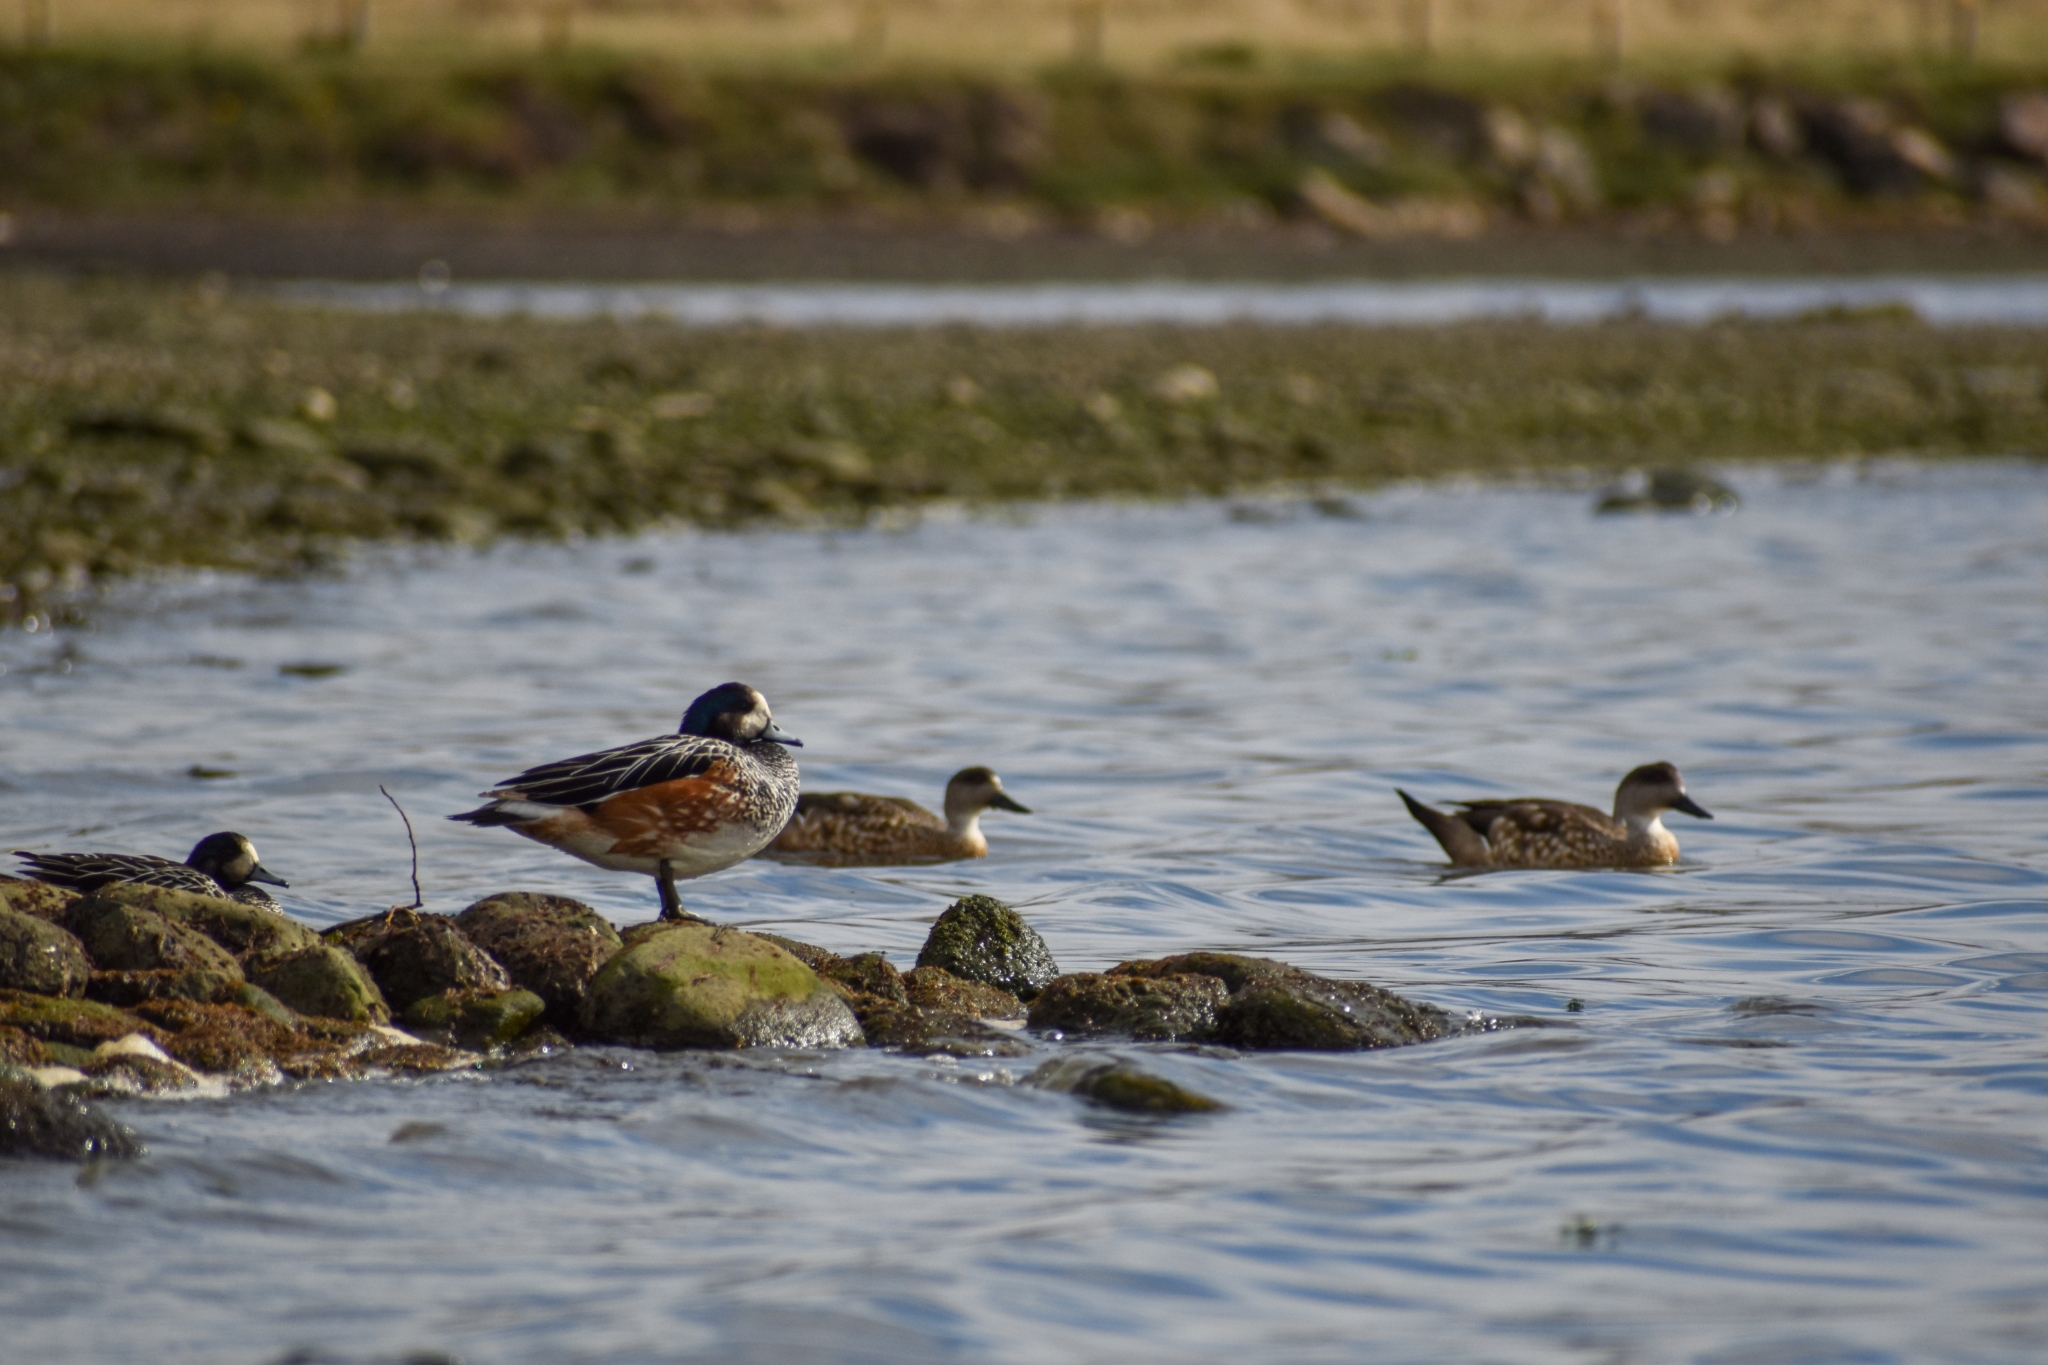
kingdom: Animalia
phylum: Chordata
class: Aves
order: Anseriformes
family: Anatidae
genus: Mareca
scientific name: Mareca sibilatrix
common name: Chiloe wigeon
